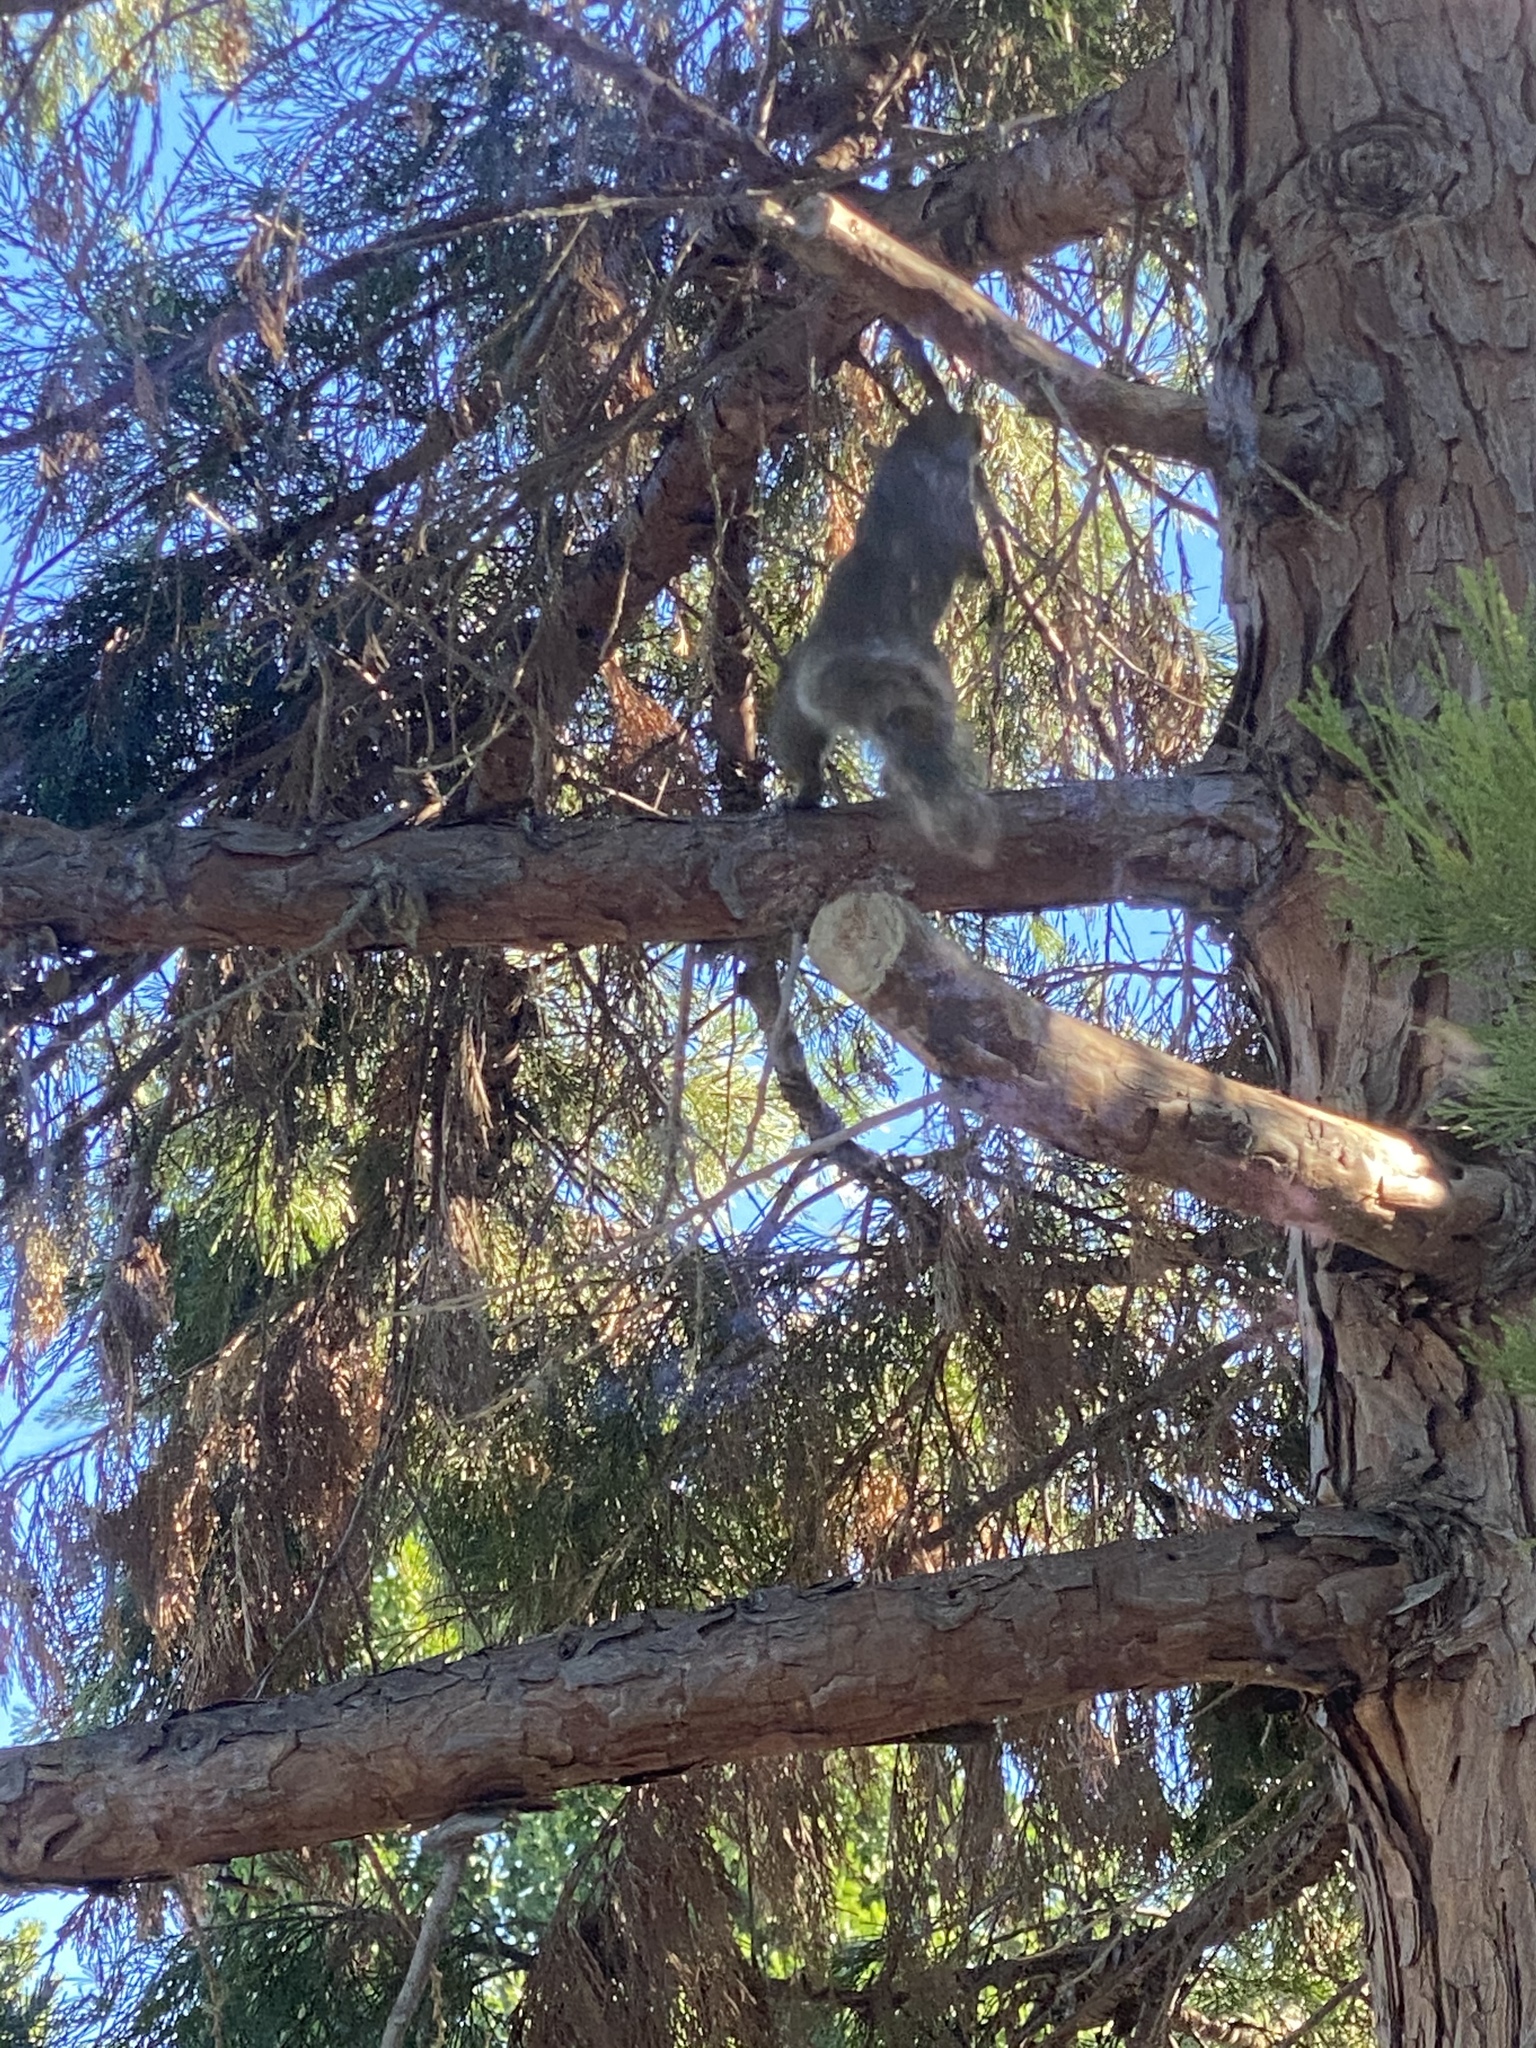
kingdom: Animalia
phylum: Chordata
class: Mammalia
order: Rodentia
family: Sciuridae
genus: Sciurus
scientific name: Sciurus carolinensis
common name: Eastern gray squirrel
